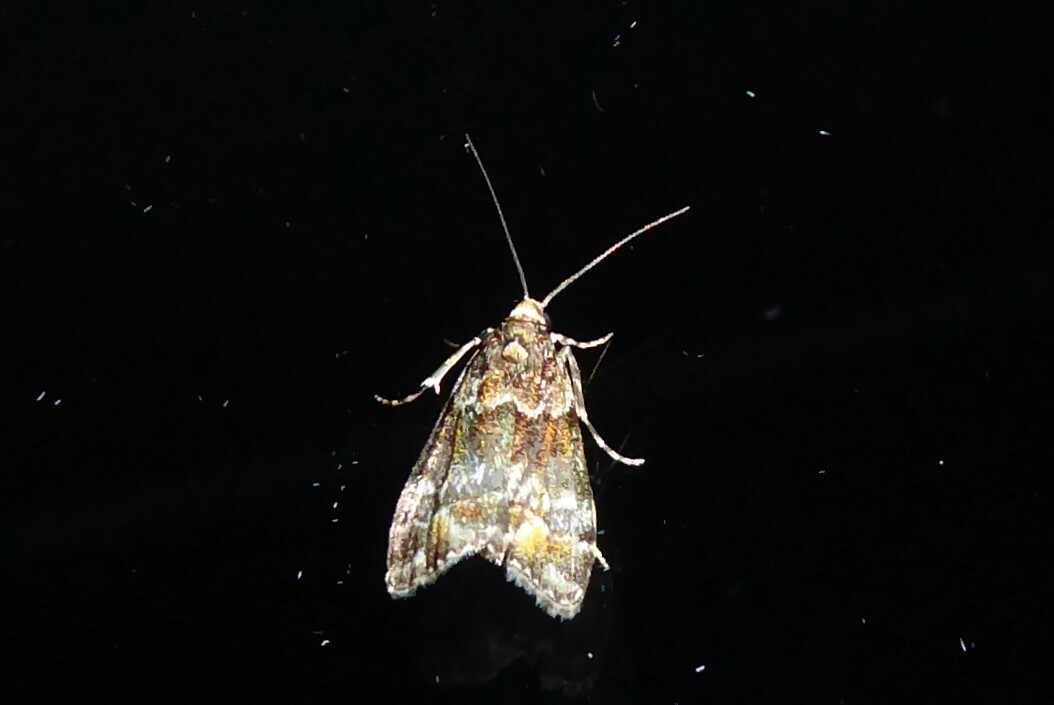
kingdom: Animalia
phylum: Arthropoda
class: Insecta
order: Lepidoptera
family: Crambidae
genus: Eudonia
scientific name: Eudonia minualis
